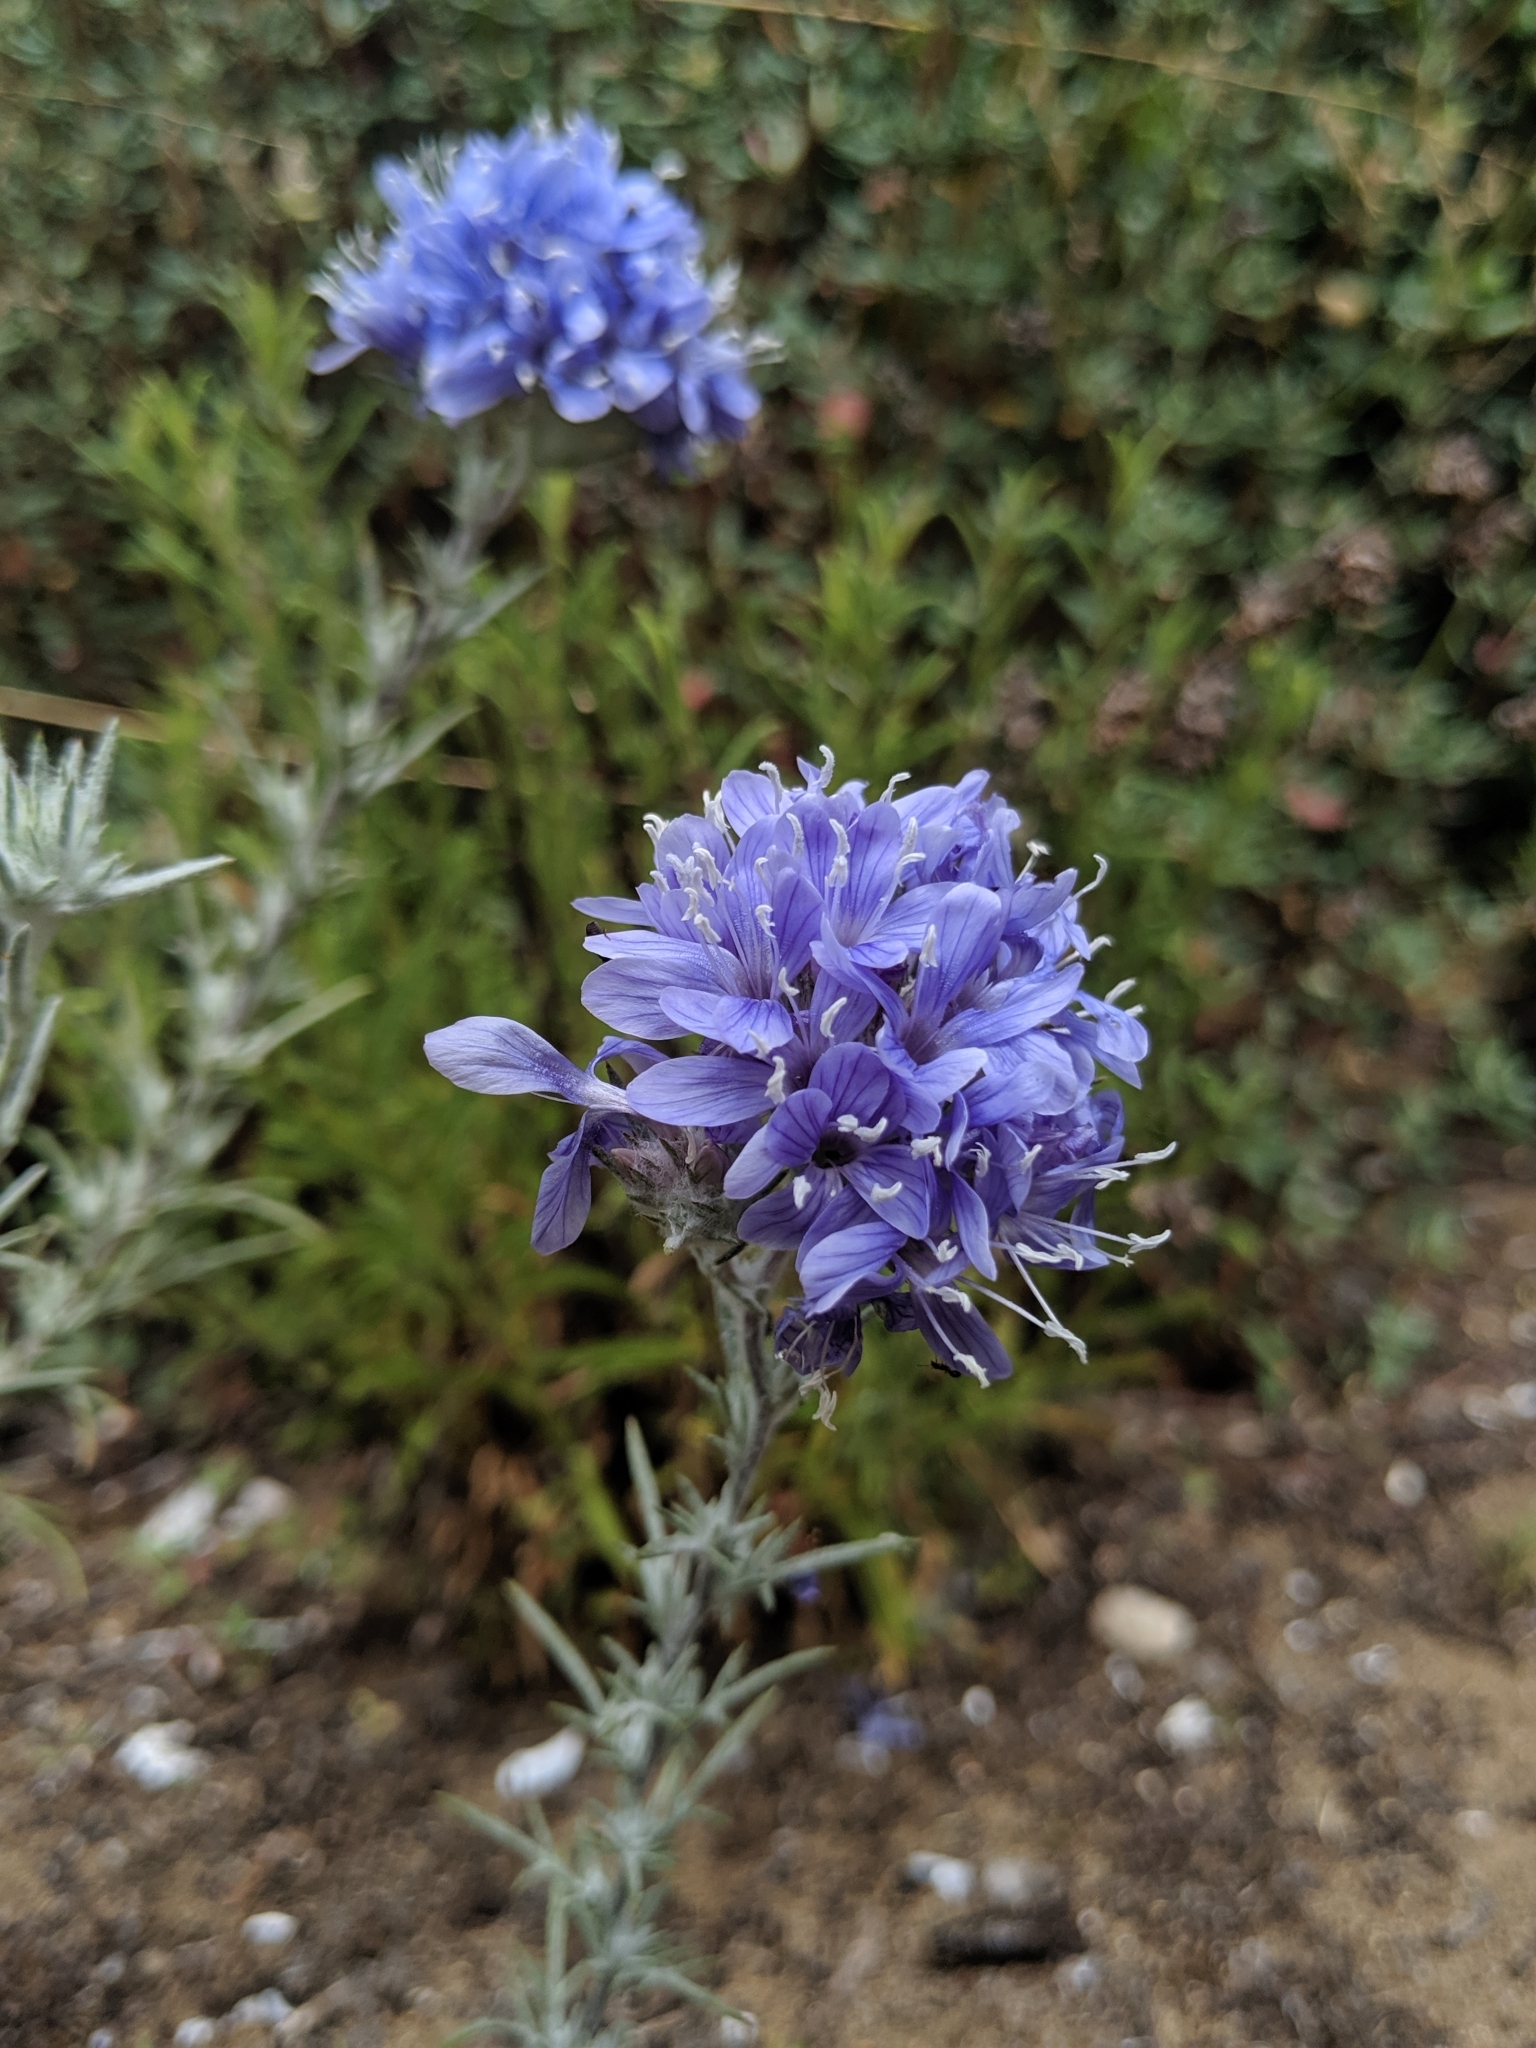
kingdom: Plantae
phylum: Tracheophyta
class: Magnoliopsida
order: Ericales
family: Polemoniaceae
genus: Eriastrum
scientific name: Eriastrum densifolium
